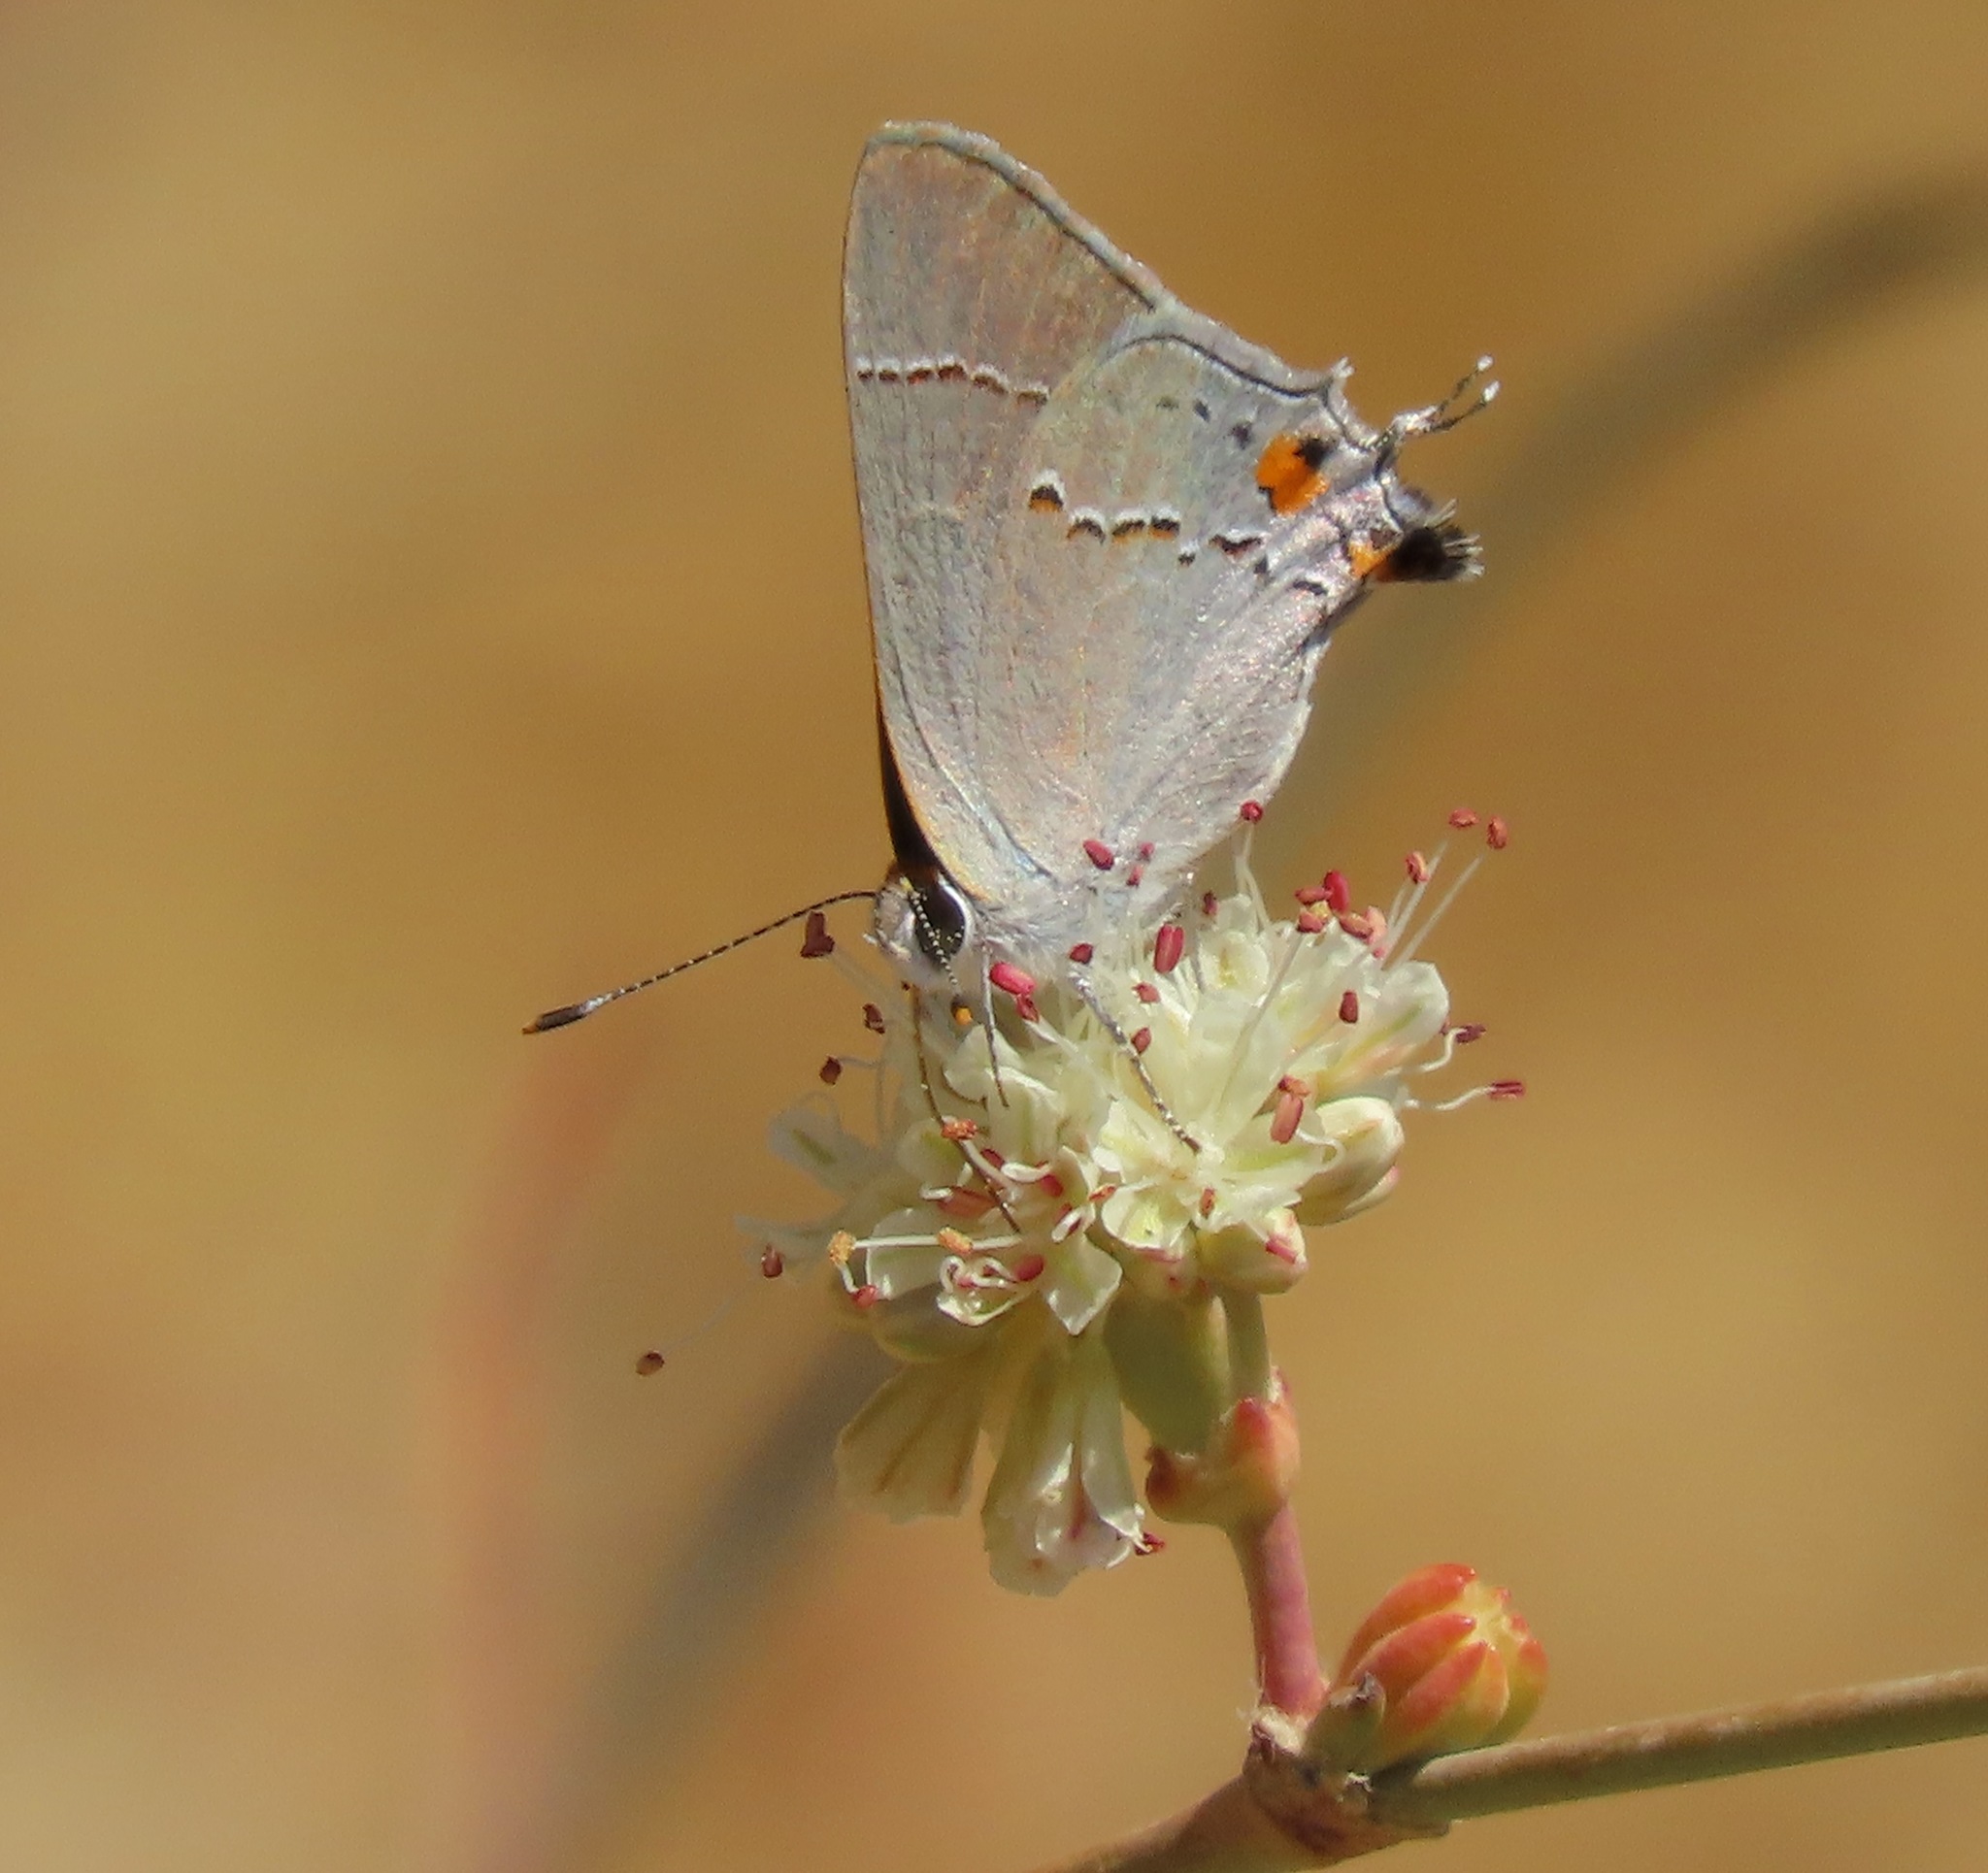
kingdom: Animalia
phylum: Arthropoda
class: Insecta
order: Lepidoptera
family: Lycaenidae
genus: Strymon
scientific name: Strymon melinus
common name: Gray hairstreak
